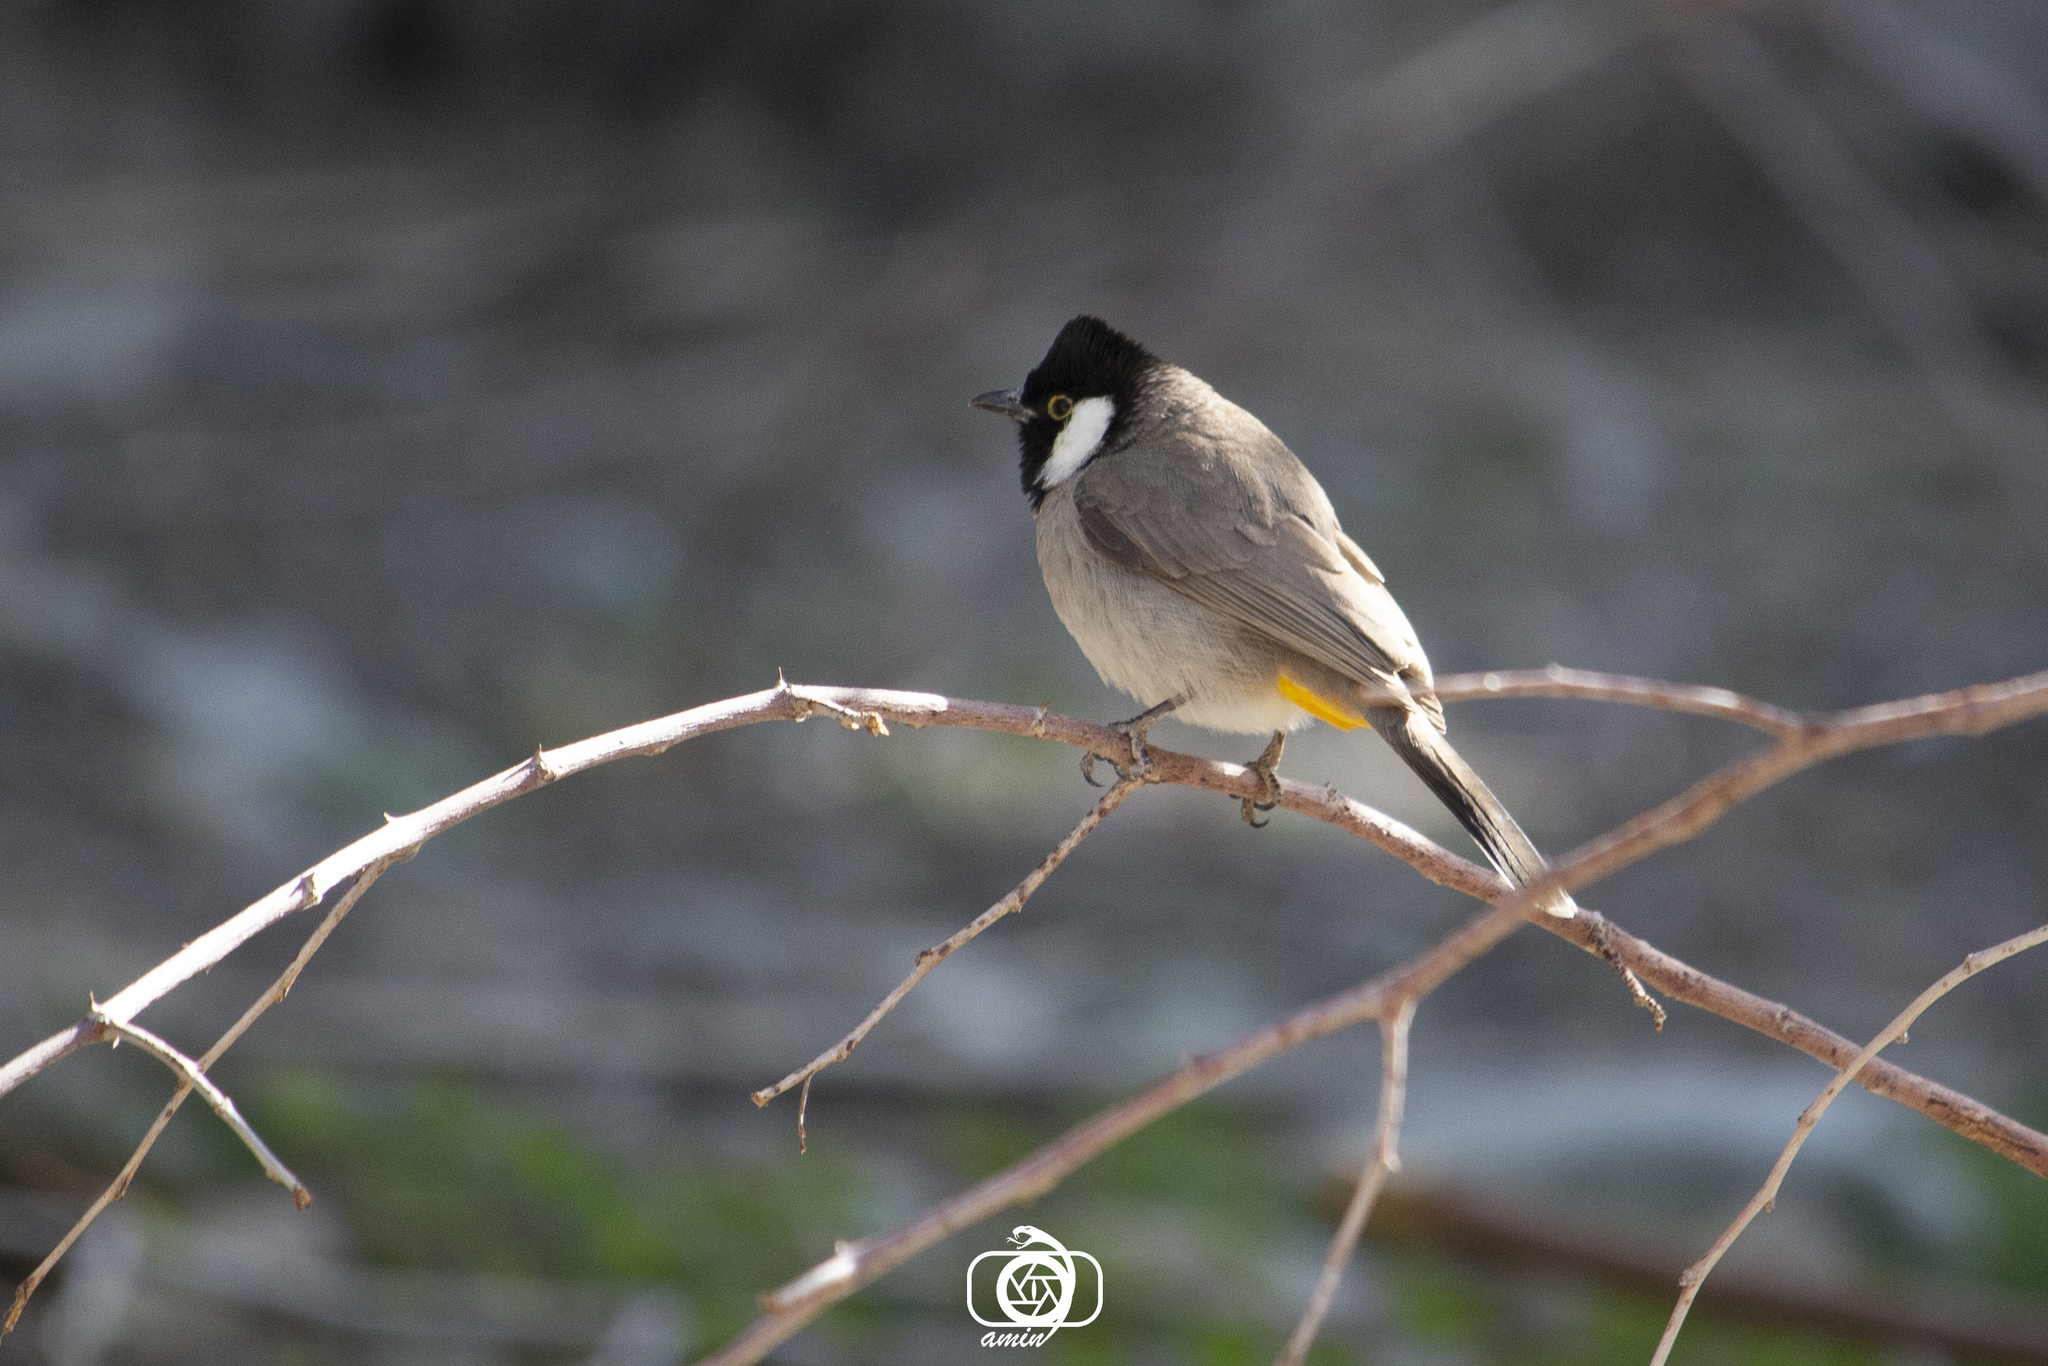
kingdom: Animalia
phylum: Chordata
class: Aves
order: Passeriformes
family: Pycnonotidae
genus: Pycnonotus
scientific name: Pycnonotus leucotis
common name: White-eared bulbul
